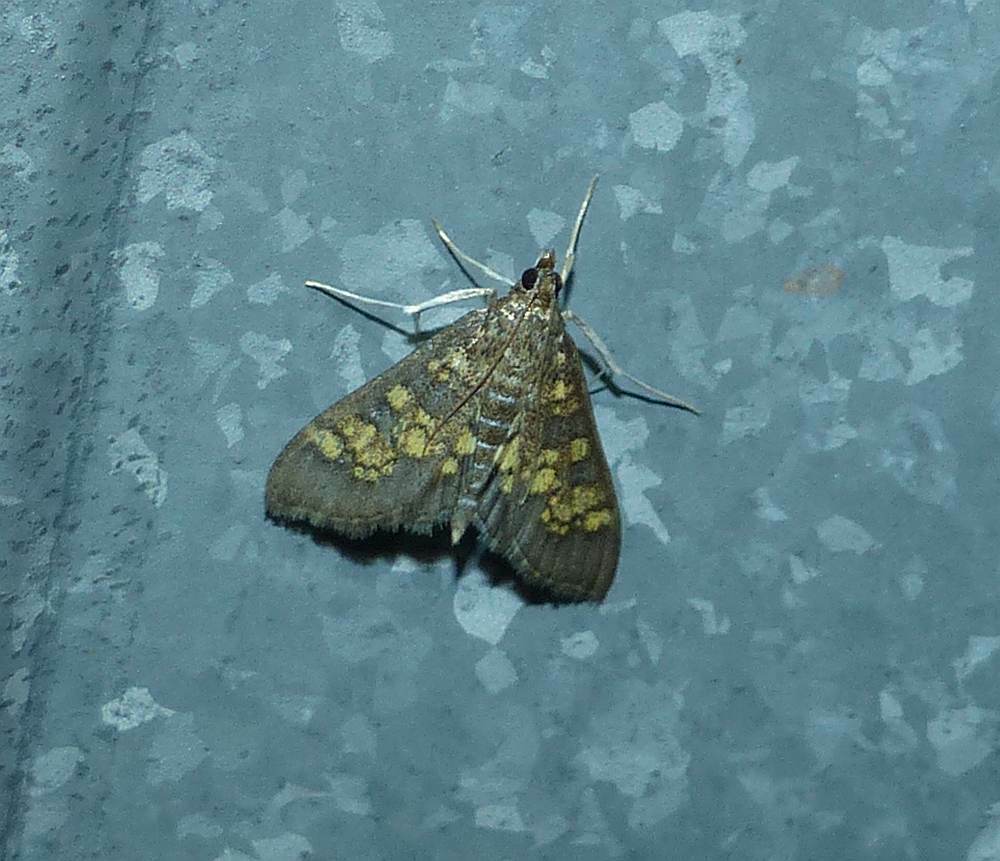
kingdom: Animalia
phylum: Arthropoda
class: Insecta
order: Lepidoptera
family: Crambidae
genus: Epipagis
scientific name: Epipagis adipaloides
